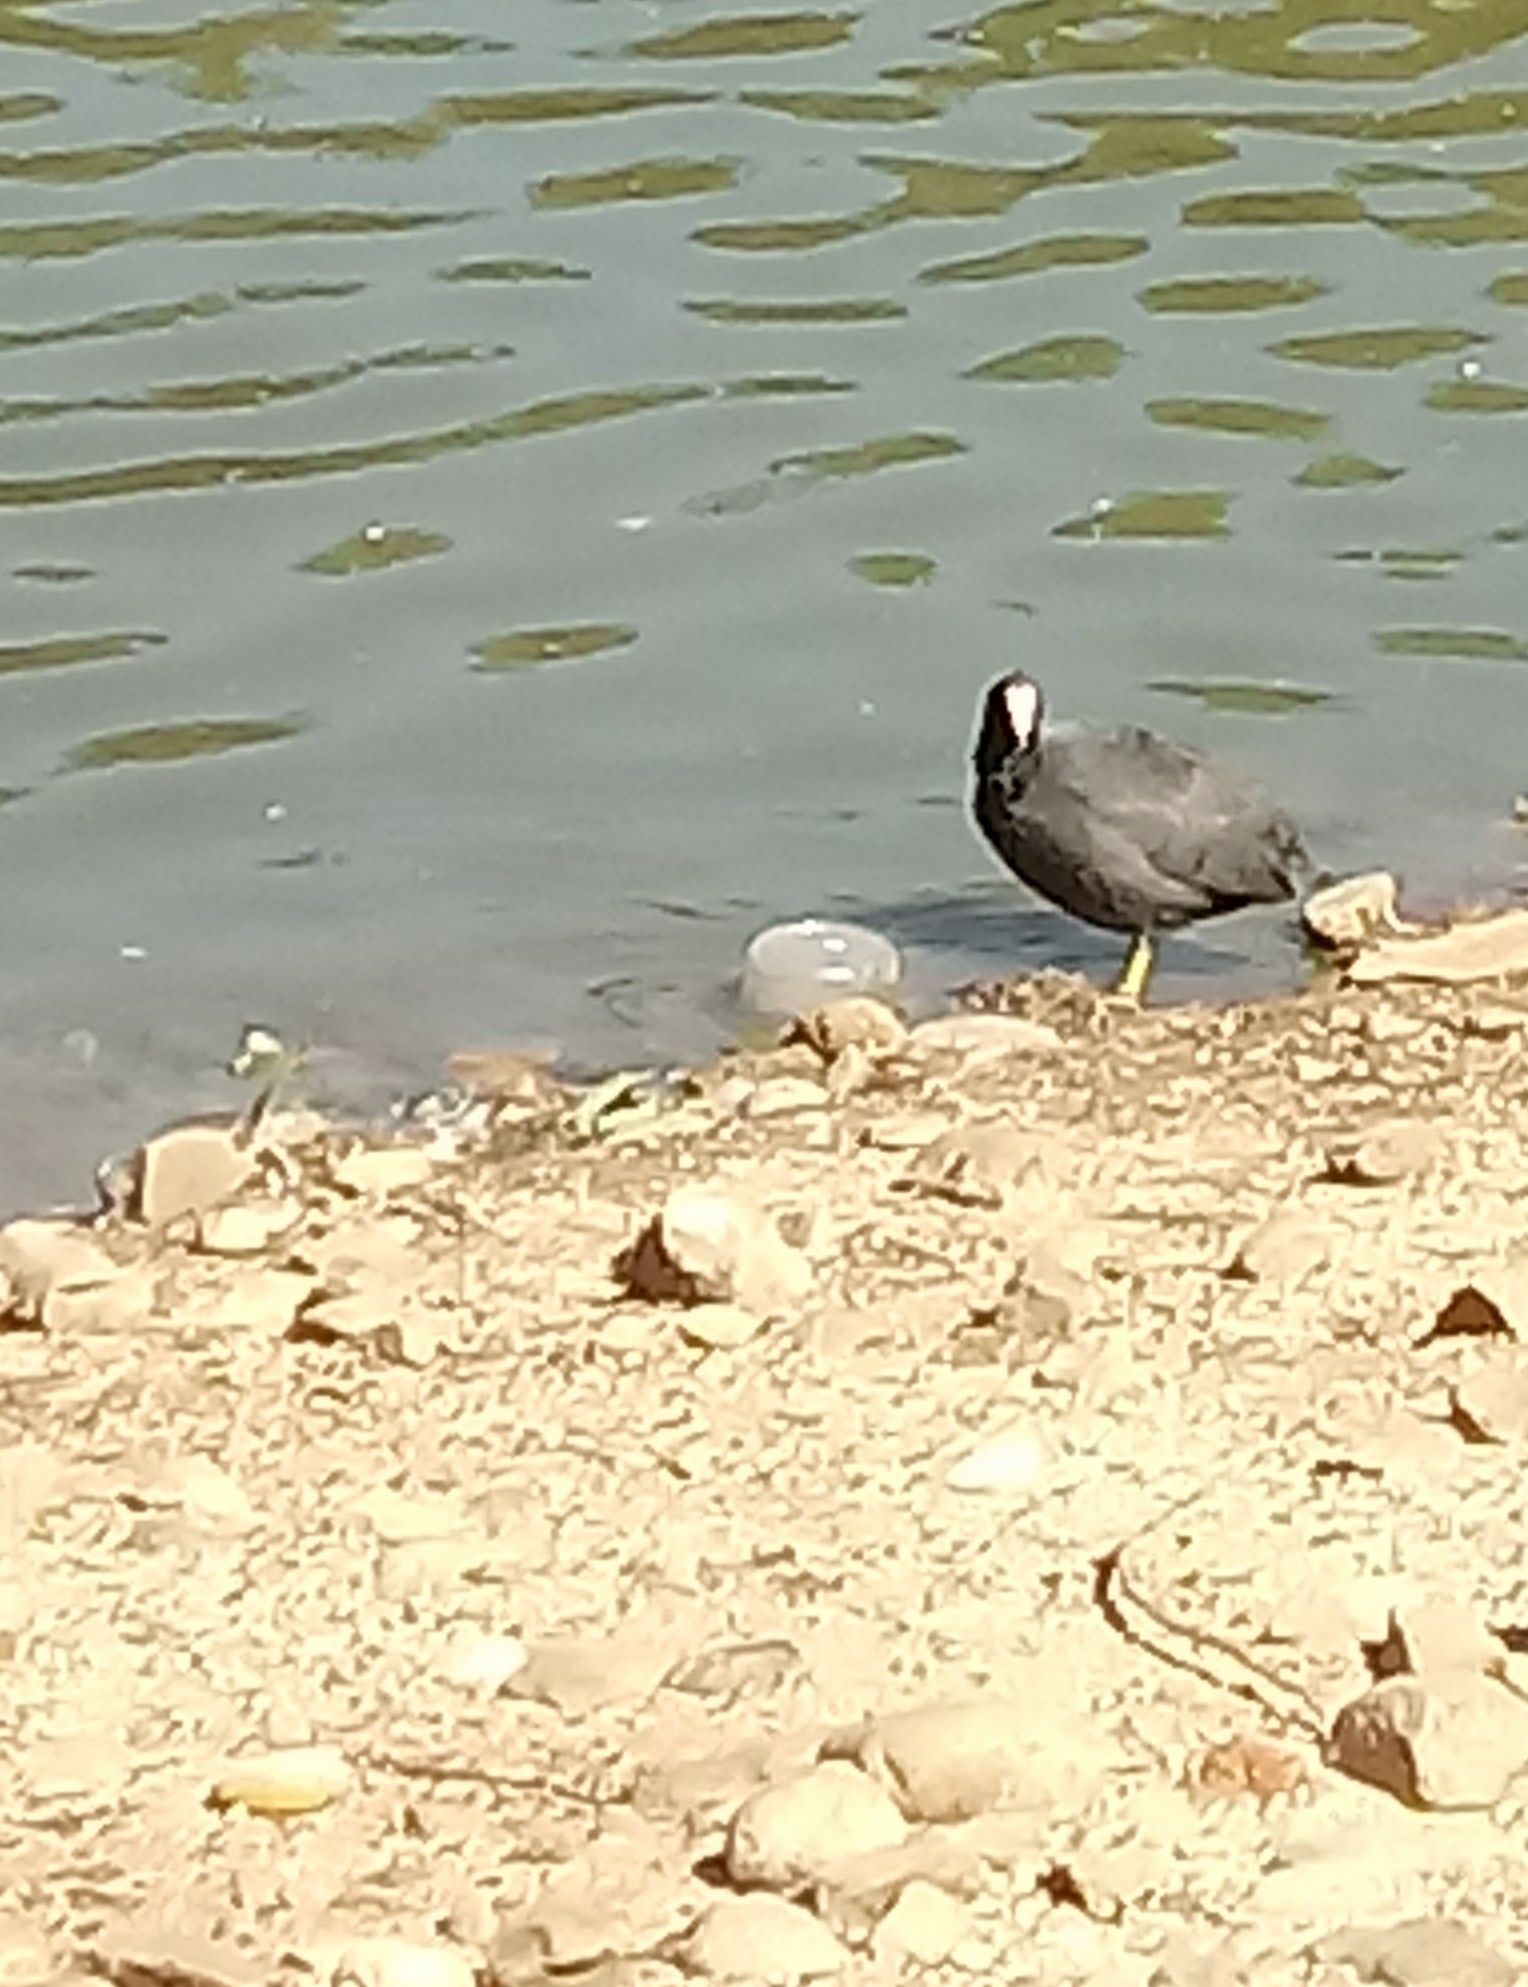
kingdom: Animalia
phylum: Chordata
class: Aves
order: Gruiformes
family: Rallidae
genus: Fulica
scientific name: Fulica americana
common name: American coot
